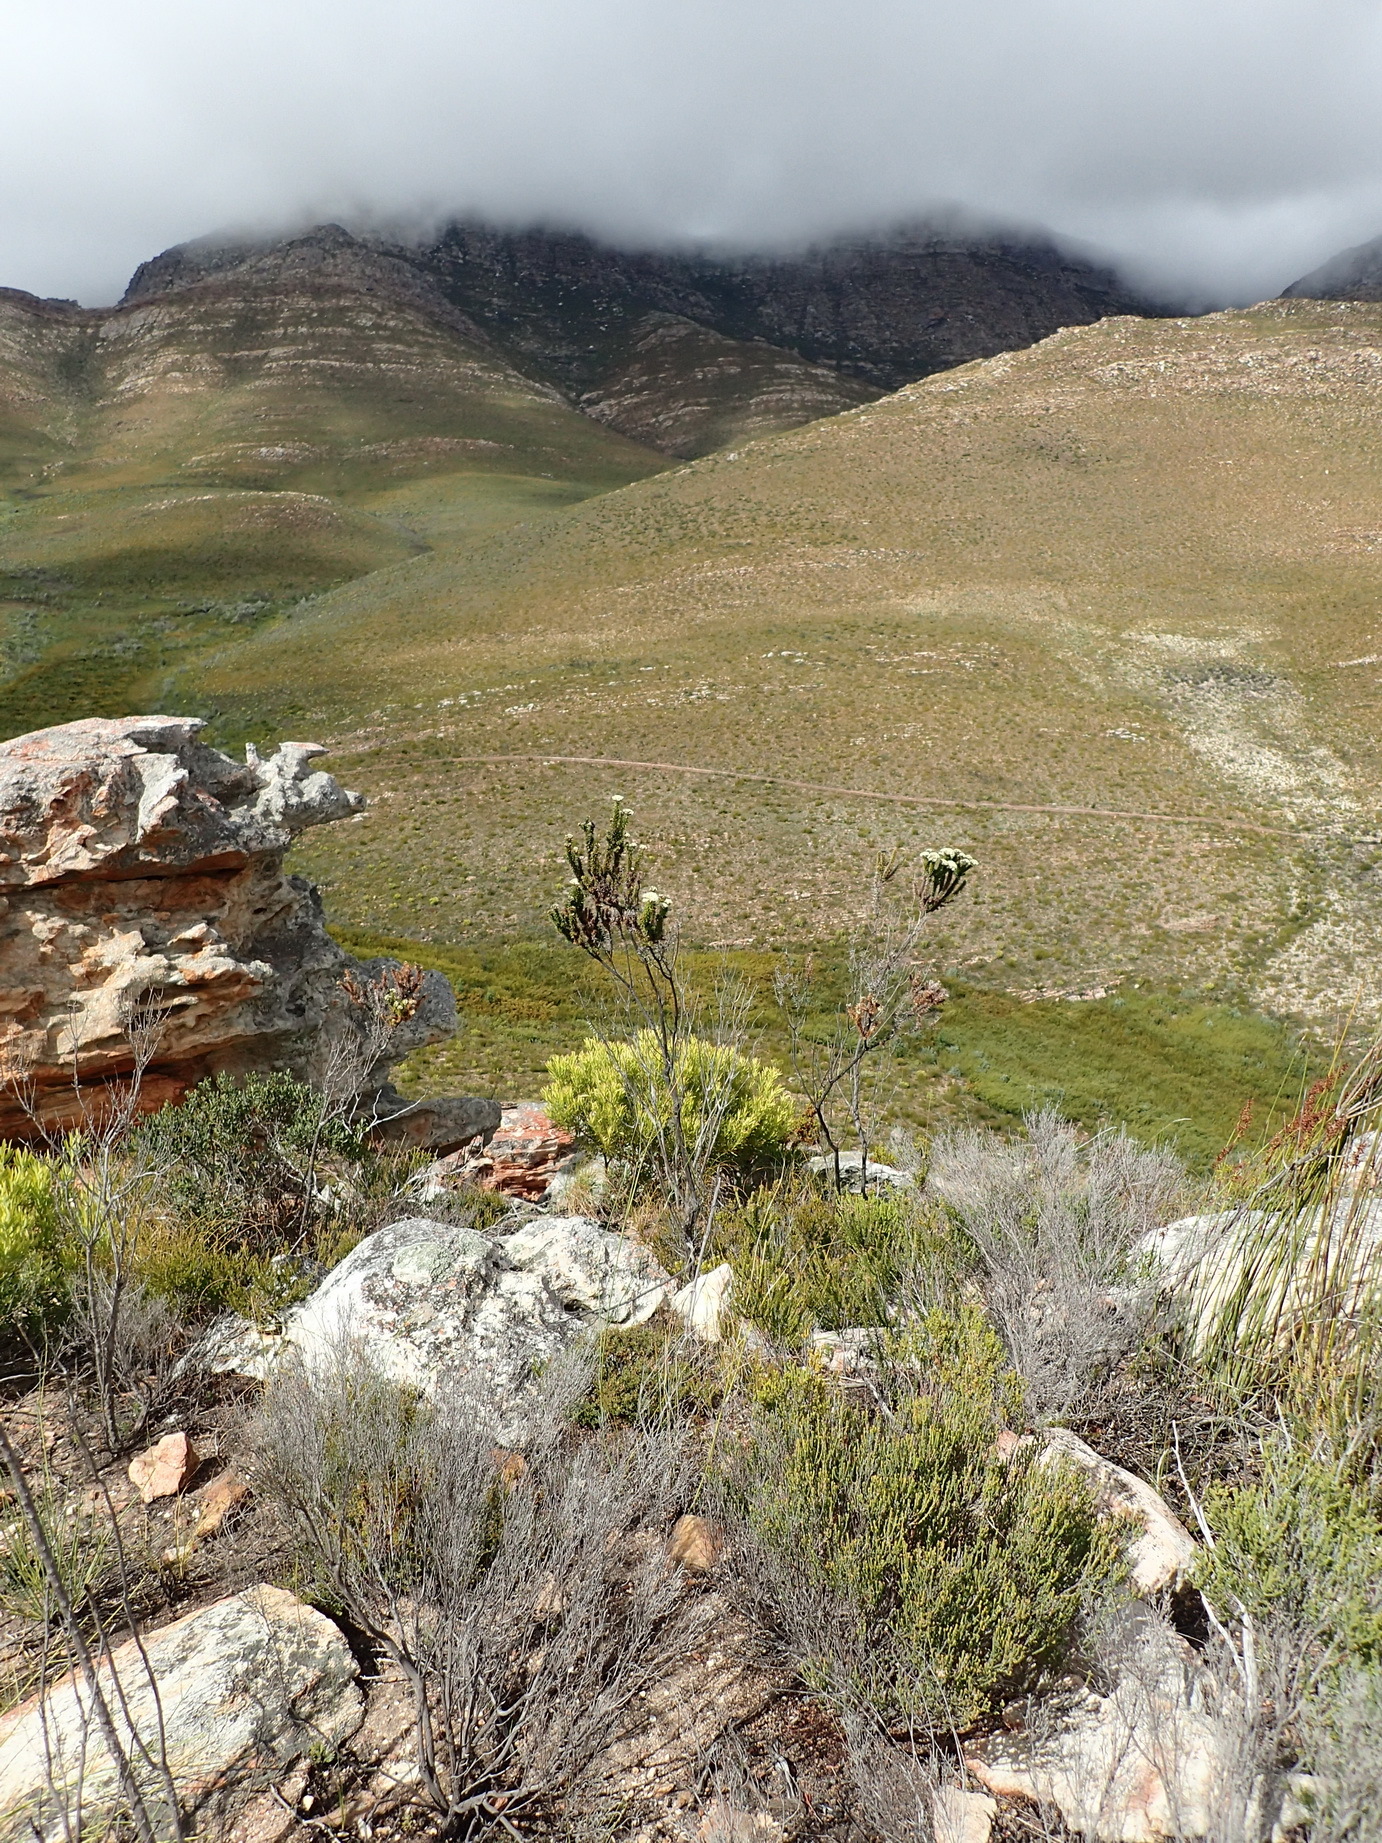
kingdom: Plantae
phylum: Tracheophyta
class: Magnoliopsida
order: Asterales
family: Asteraceae
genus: Metalasia
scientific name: Metalasia trivialis
